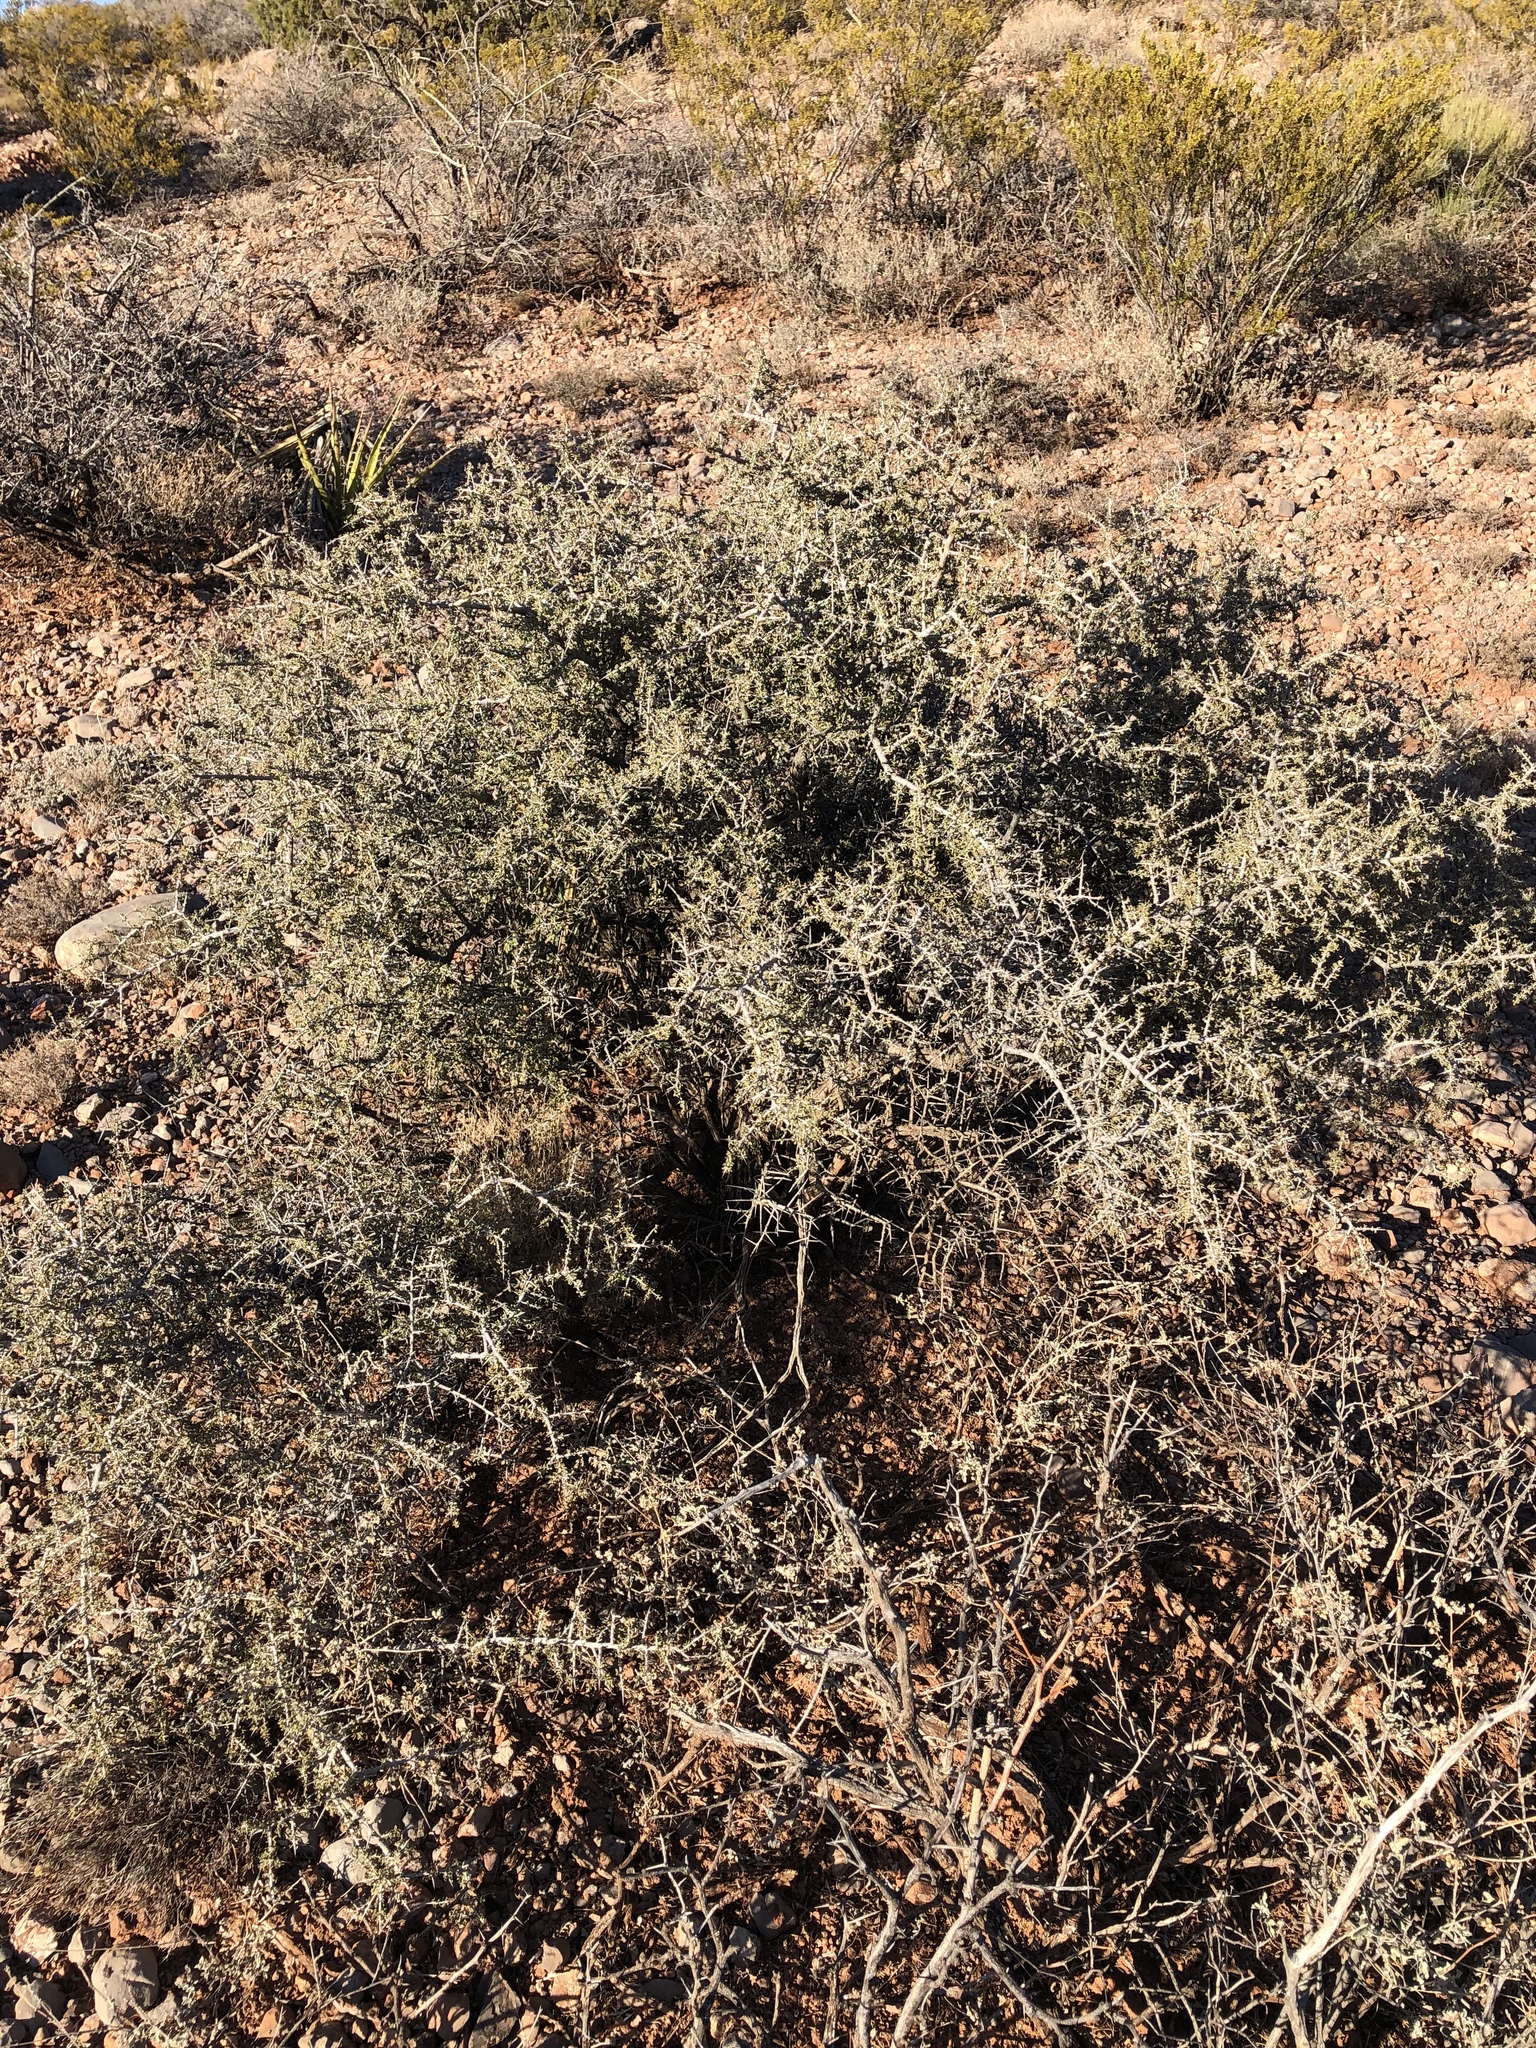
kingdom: Plantae
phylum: Tracheophyta
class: Magnoliopsida
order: Rosales
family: Rhamnaceae
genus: Condalia
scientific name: Condalia warnockii
